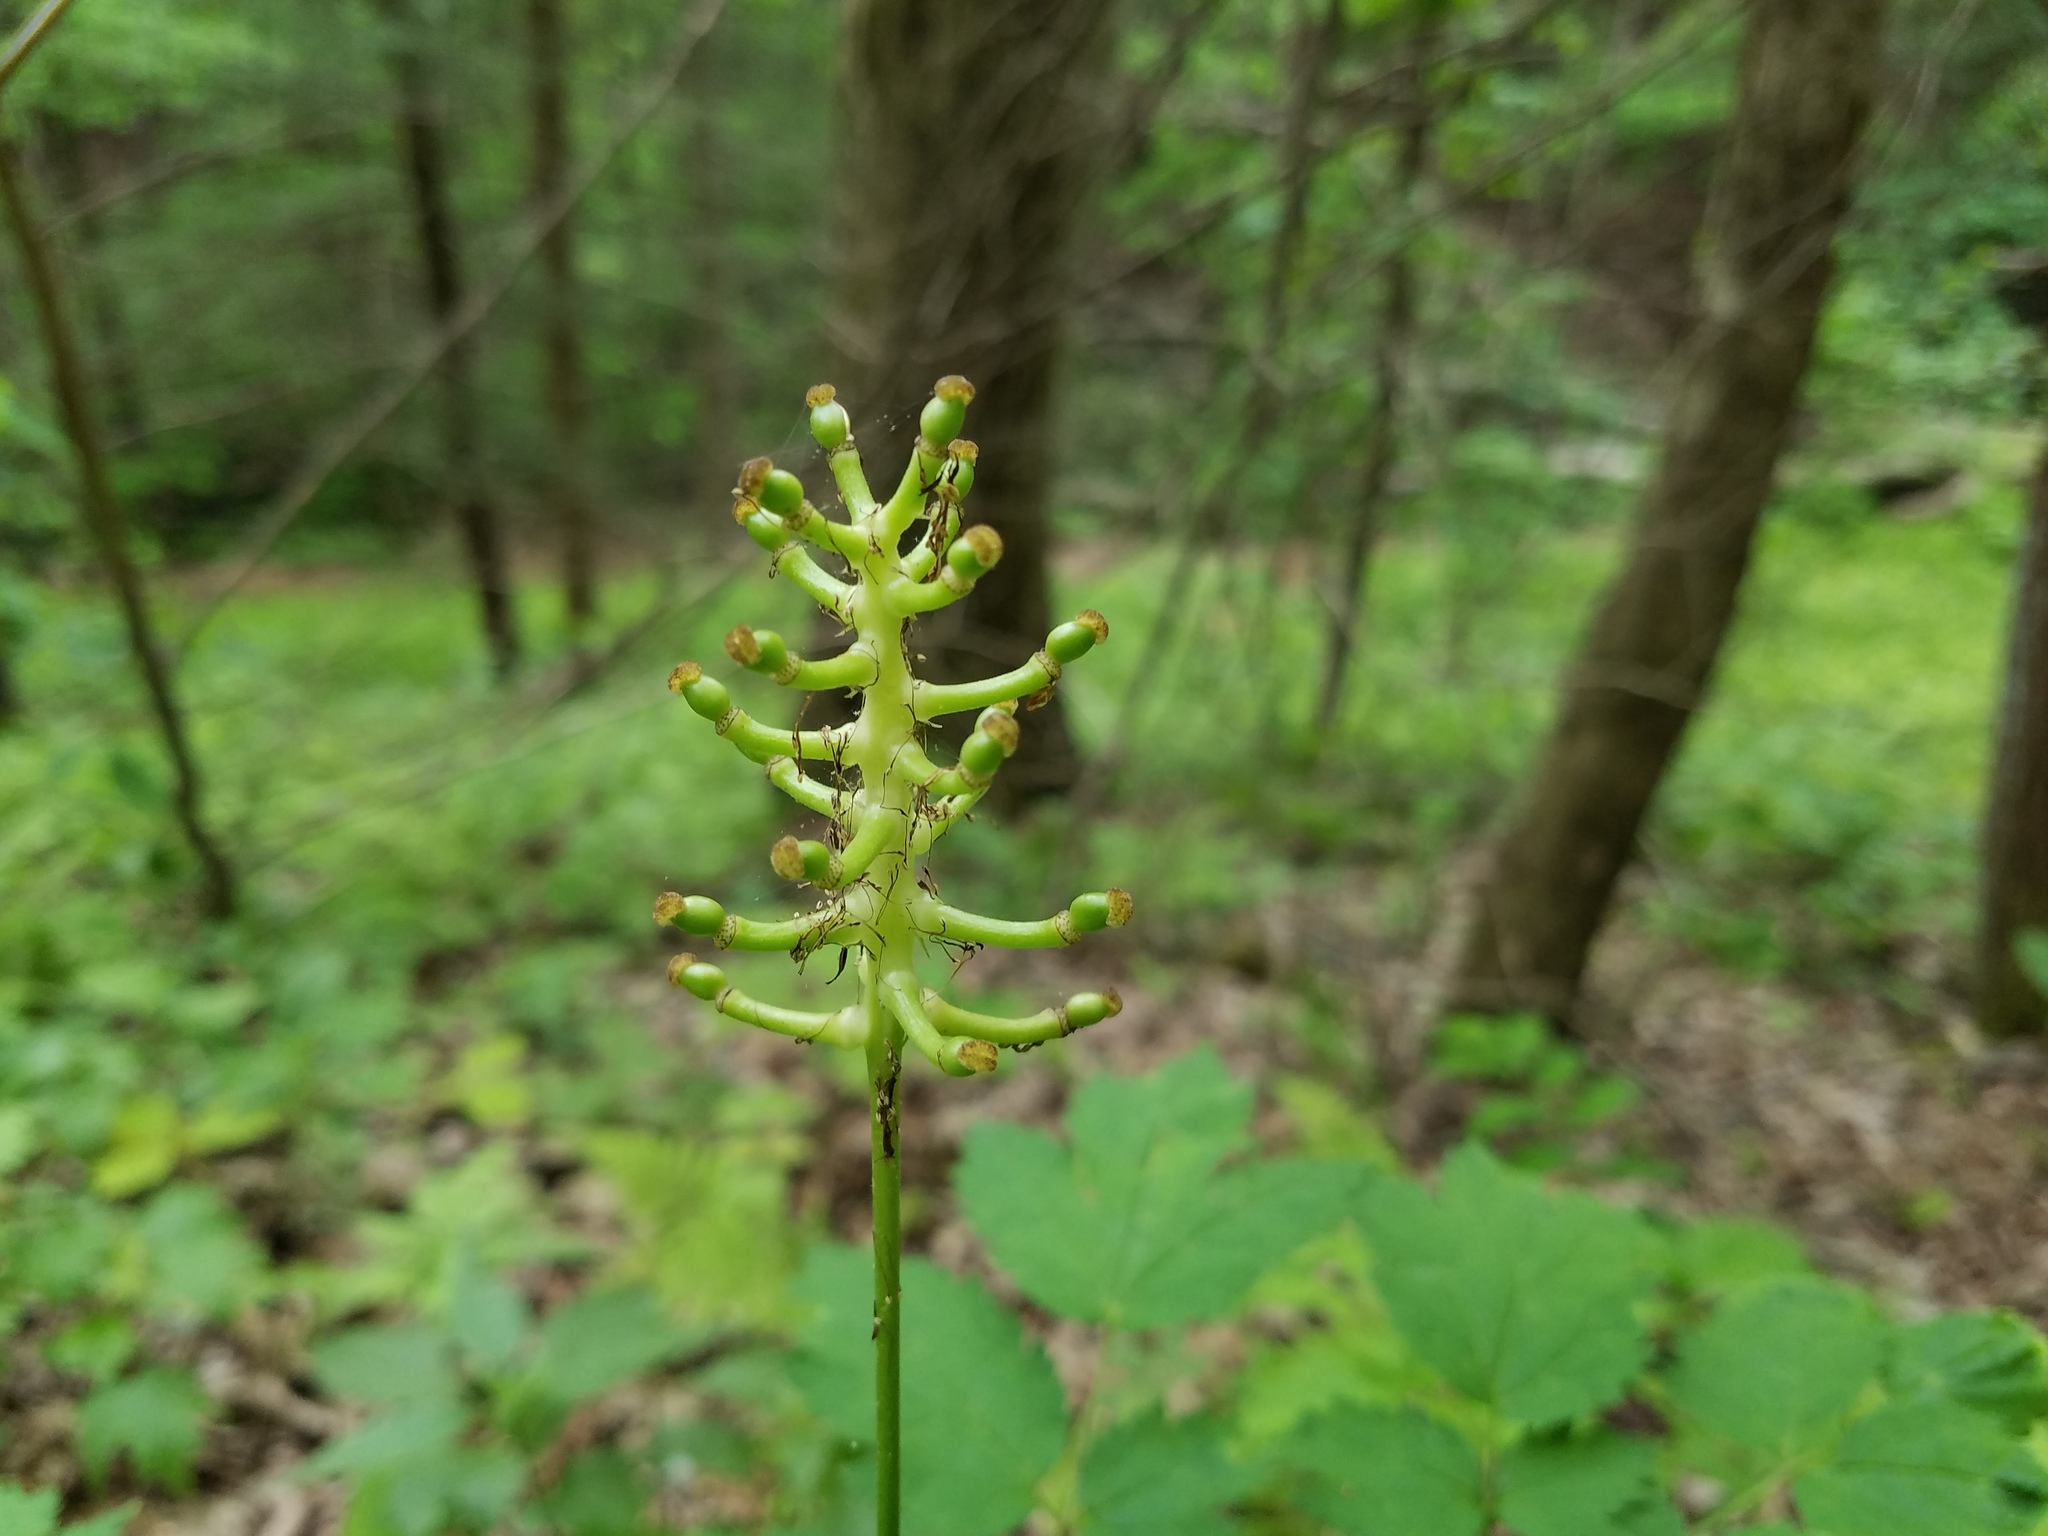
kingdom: Plantae
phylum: Tracheophyta
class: Magnoliopsida
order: Ranunculales
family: Ranunculaceae
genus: Actaea
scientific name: Actaea pachypoda
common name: Doll's-eyes
